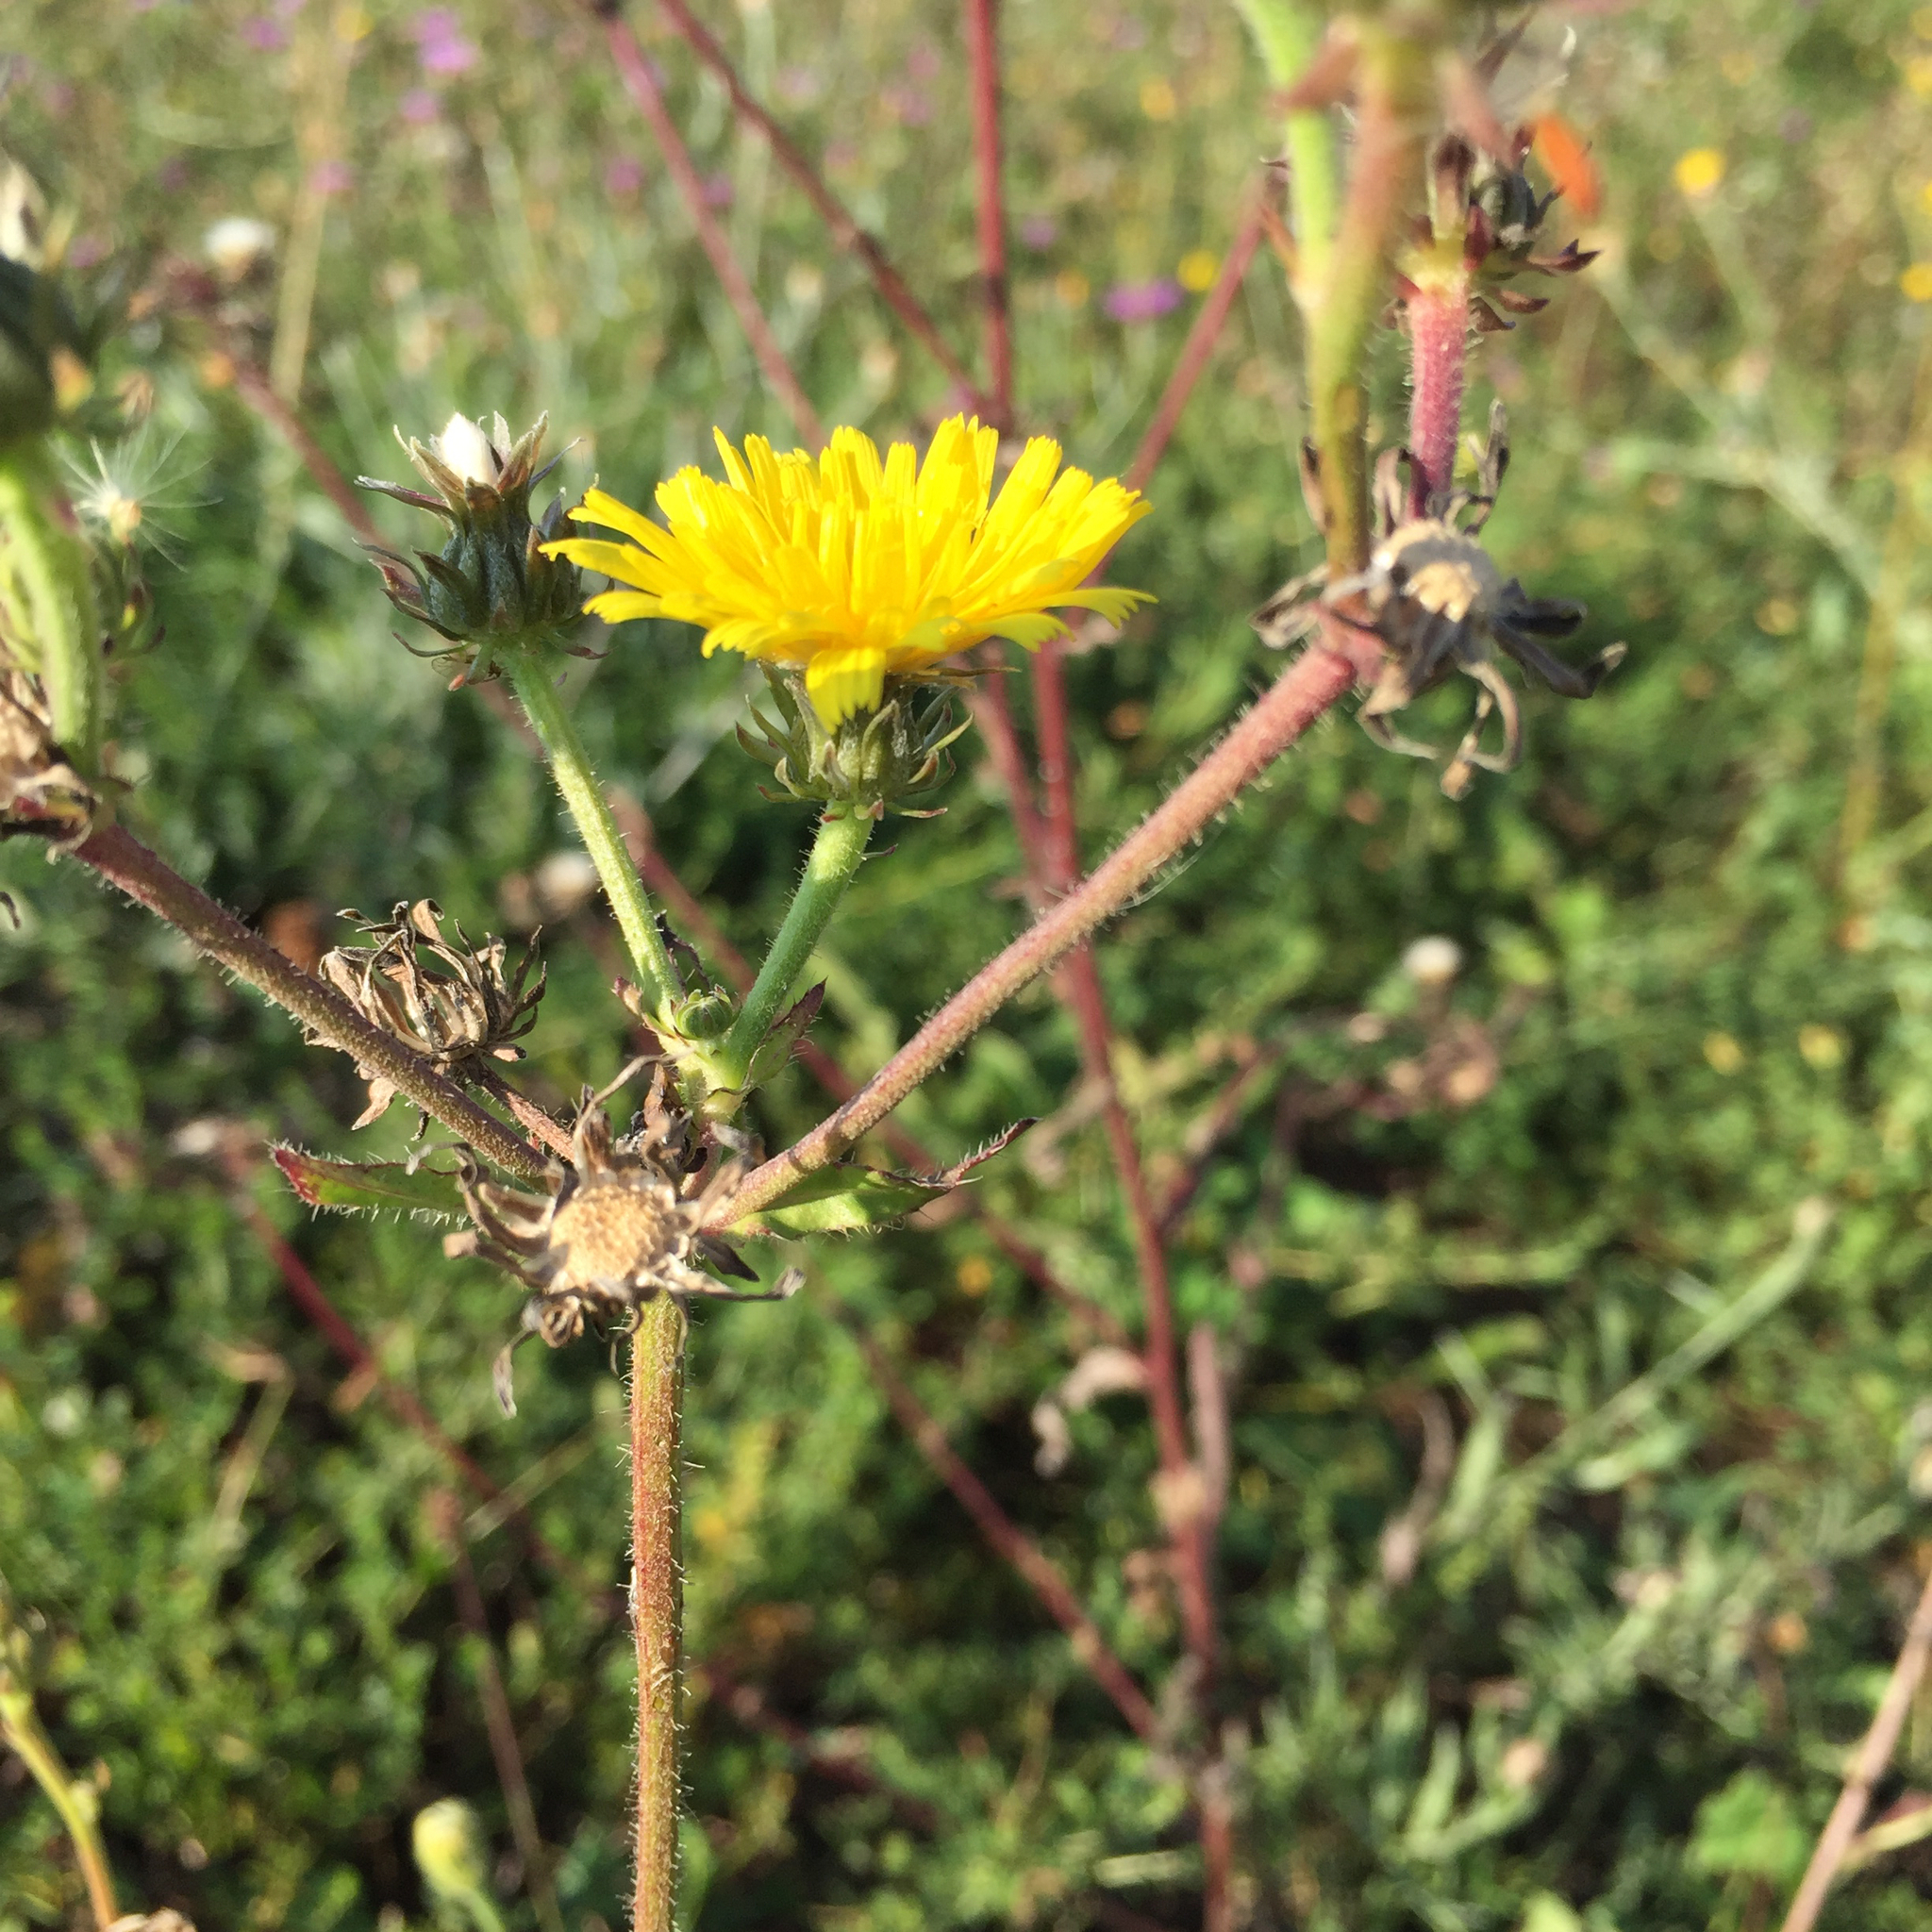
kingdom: Plantae
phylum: Tracheophyta
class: Magnoliopsida
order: Asterales
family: Asteraceae
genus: Picris
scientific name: Picris hieracioides
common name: Hawkweed oxtongue
